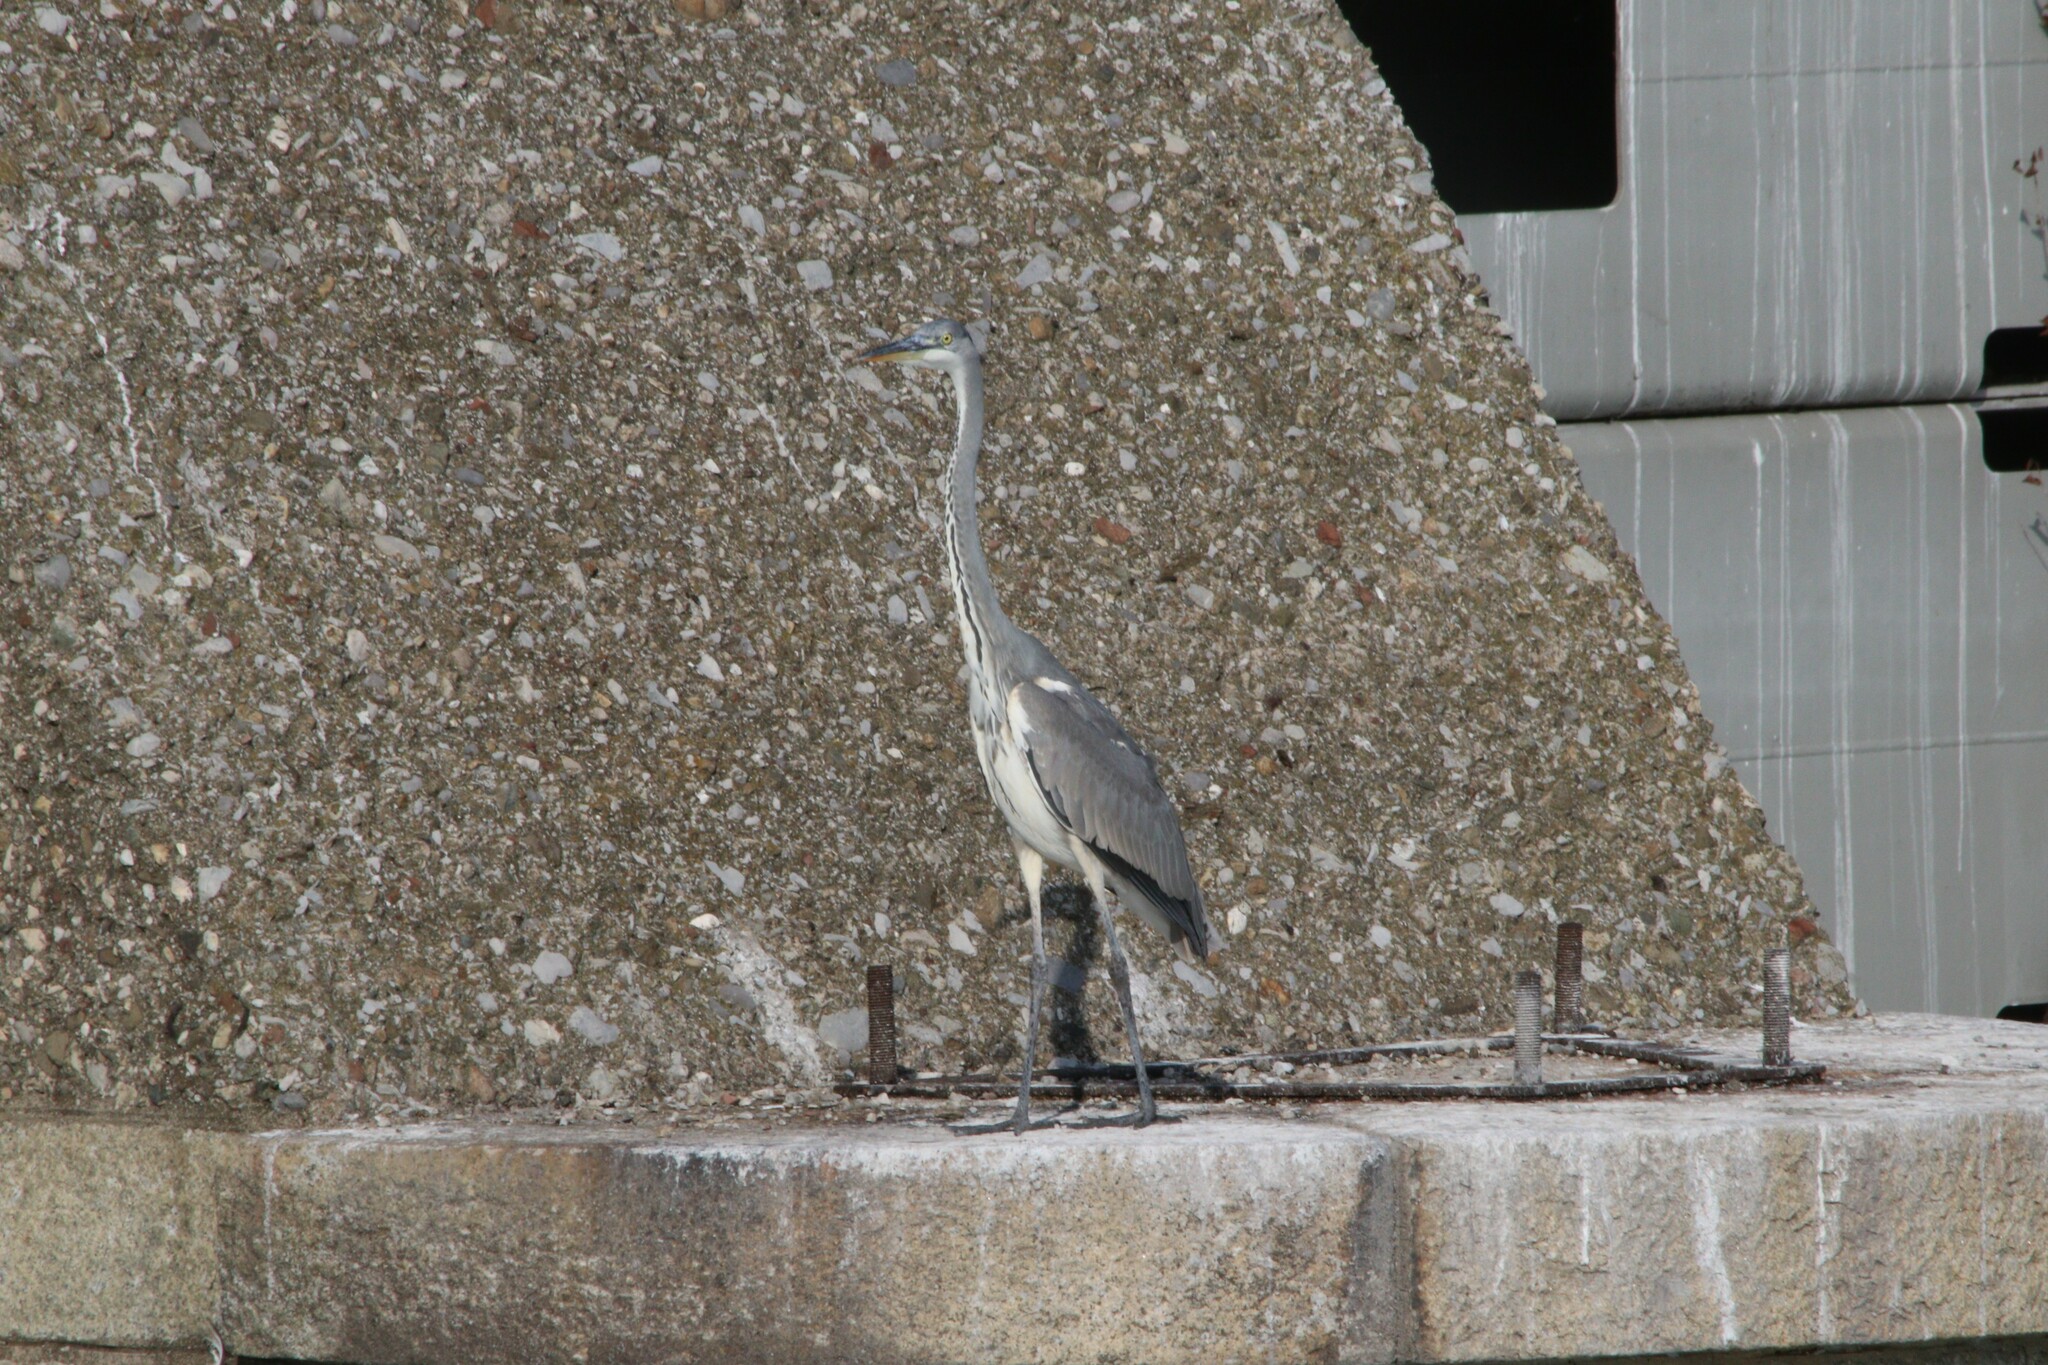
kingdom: Animalia
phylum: Chordata
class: Aves
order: Pelecaniformes
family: Ardeidae
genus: Ardea
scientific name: Ardea cinerea
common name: Grey heron
